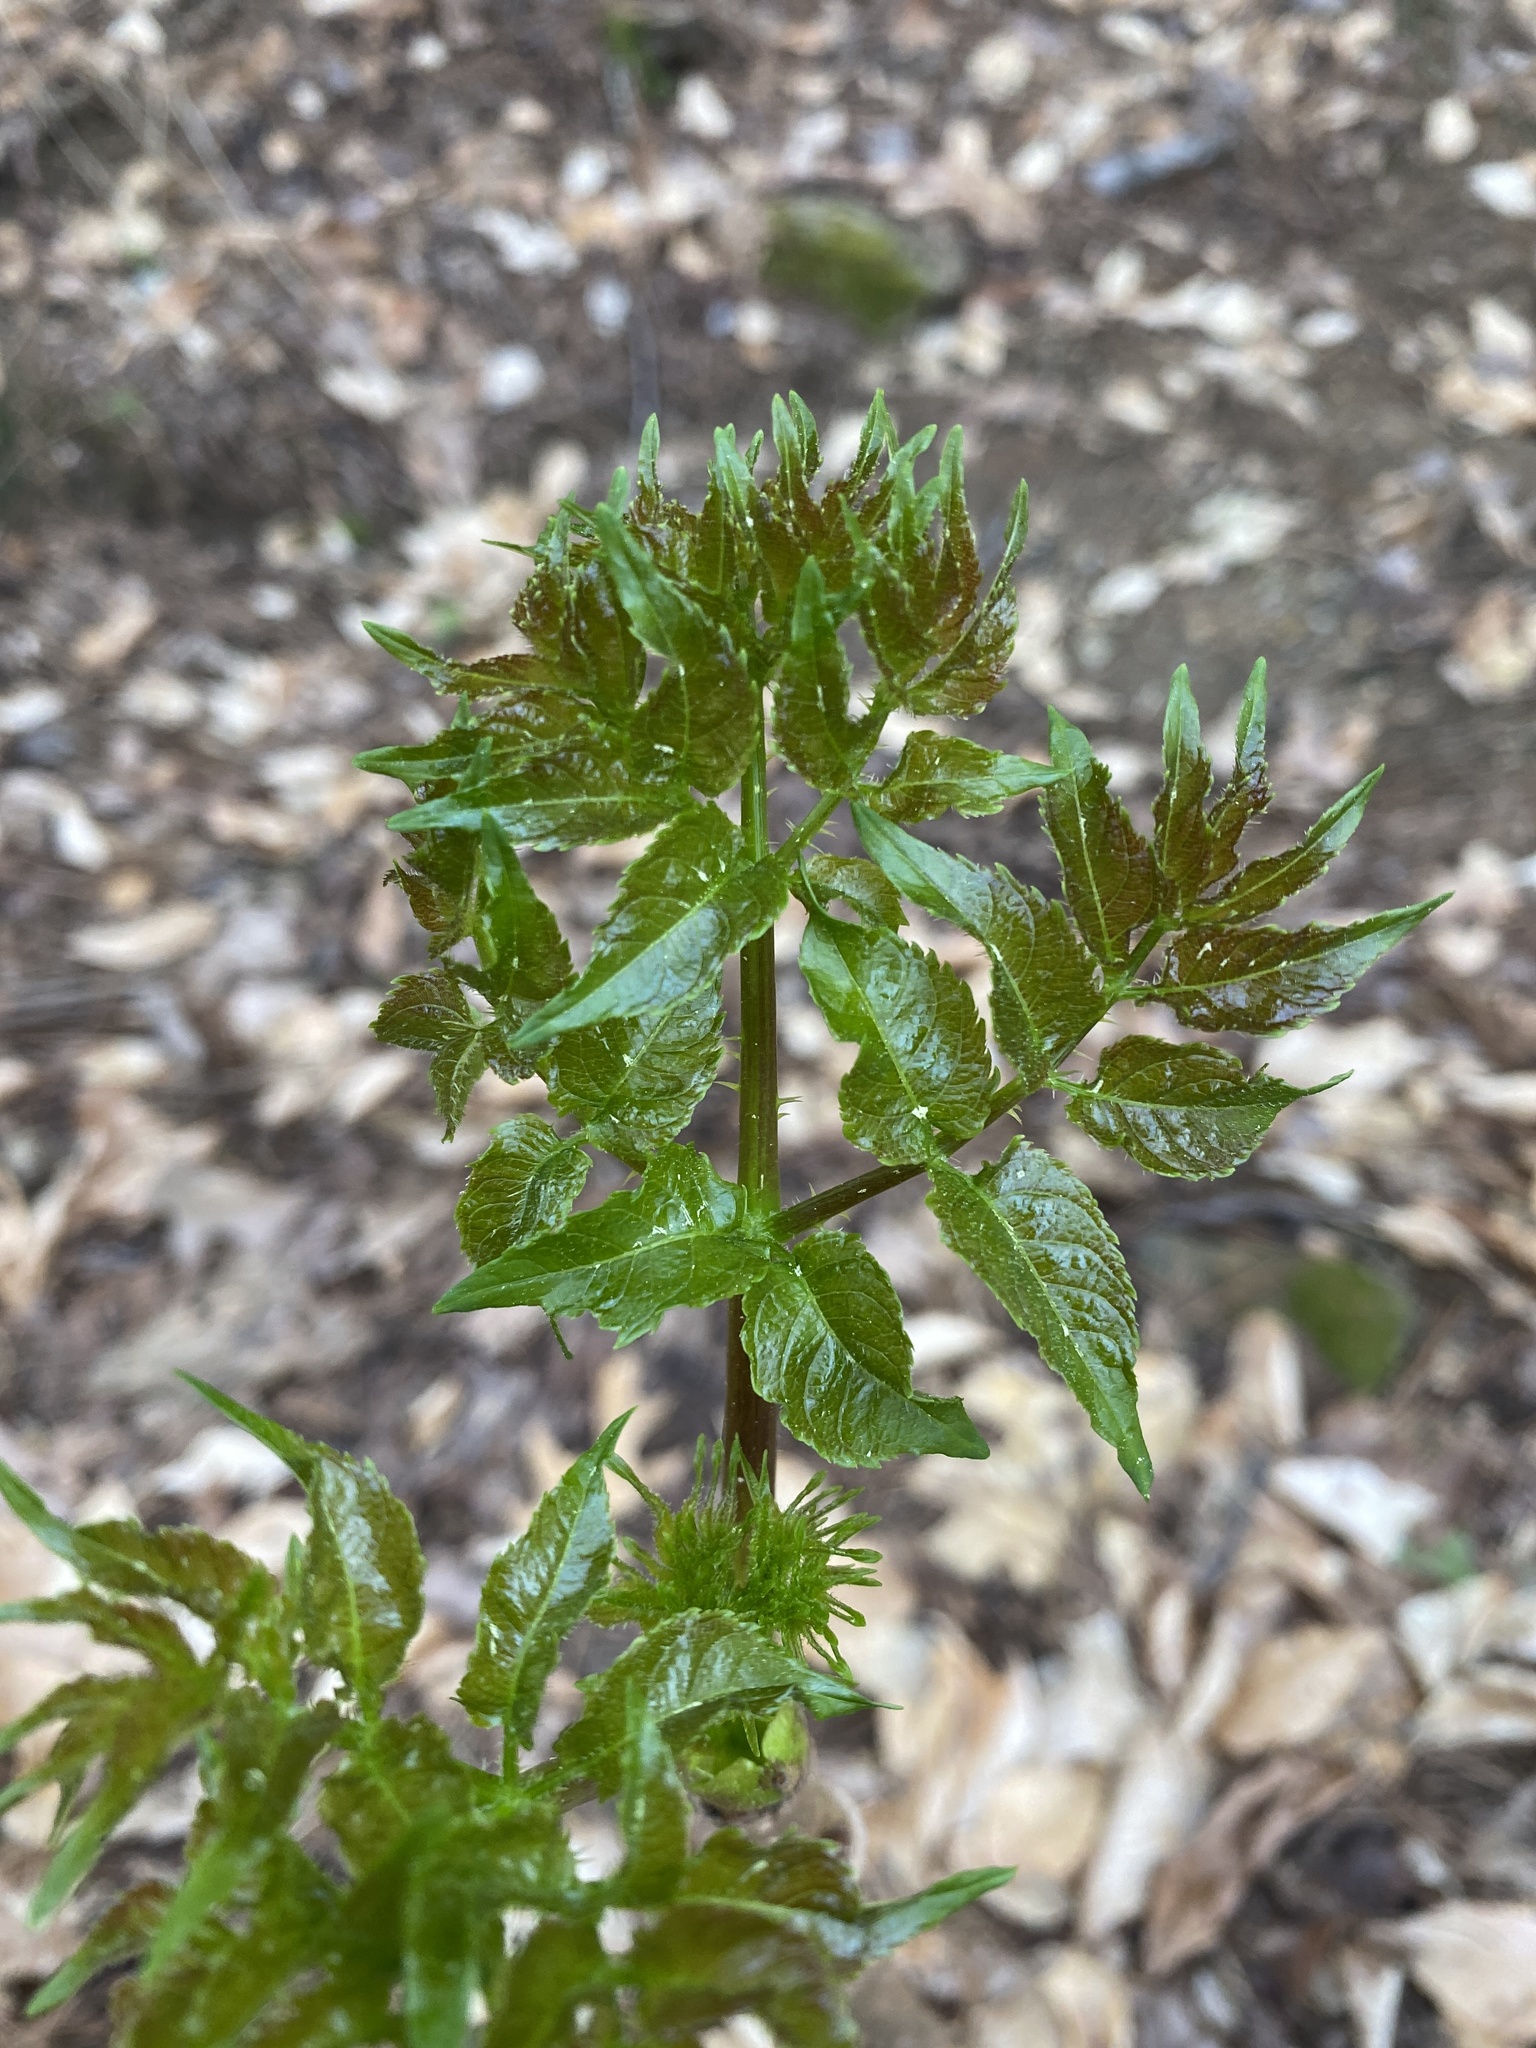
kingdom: Plantae
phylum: Tracheophyta
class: Magnoliopsida
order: Apiales
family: Araliaceae
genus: Aralia
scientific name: Aralia spinosa
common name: Hercules'-club
